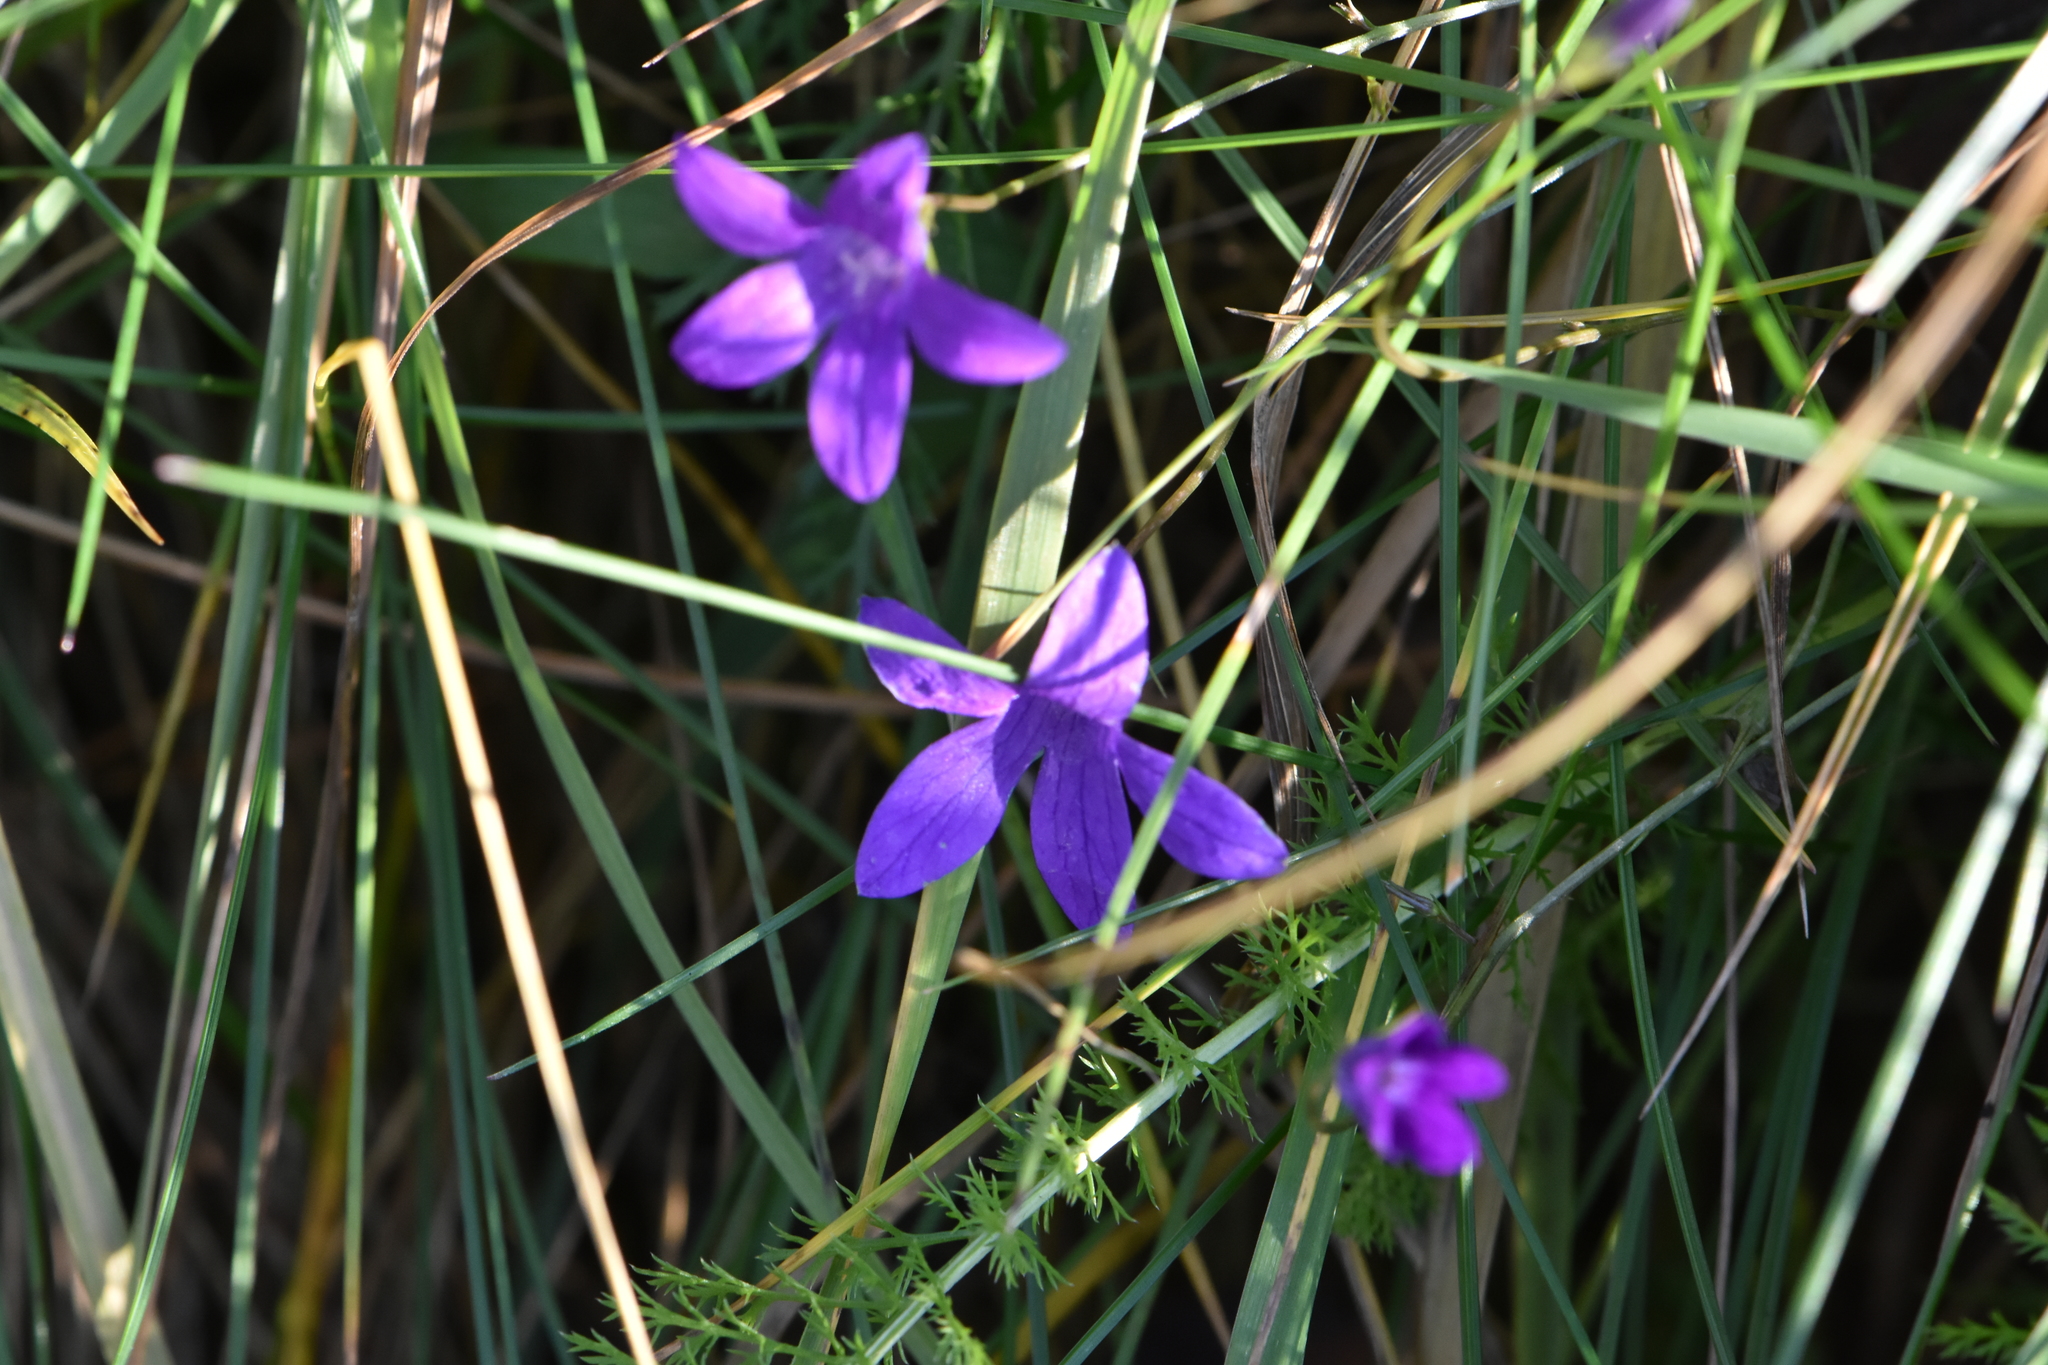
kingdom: Plantae
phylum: Tracheophyta
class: Magnoliopsida
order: Asterales
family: Campanulaceae
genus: Campanula
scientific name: Campanula patula
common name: Spreading bellflower
